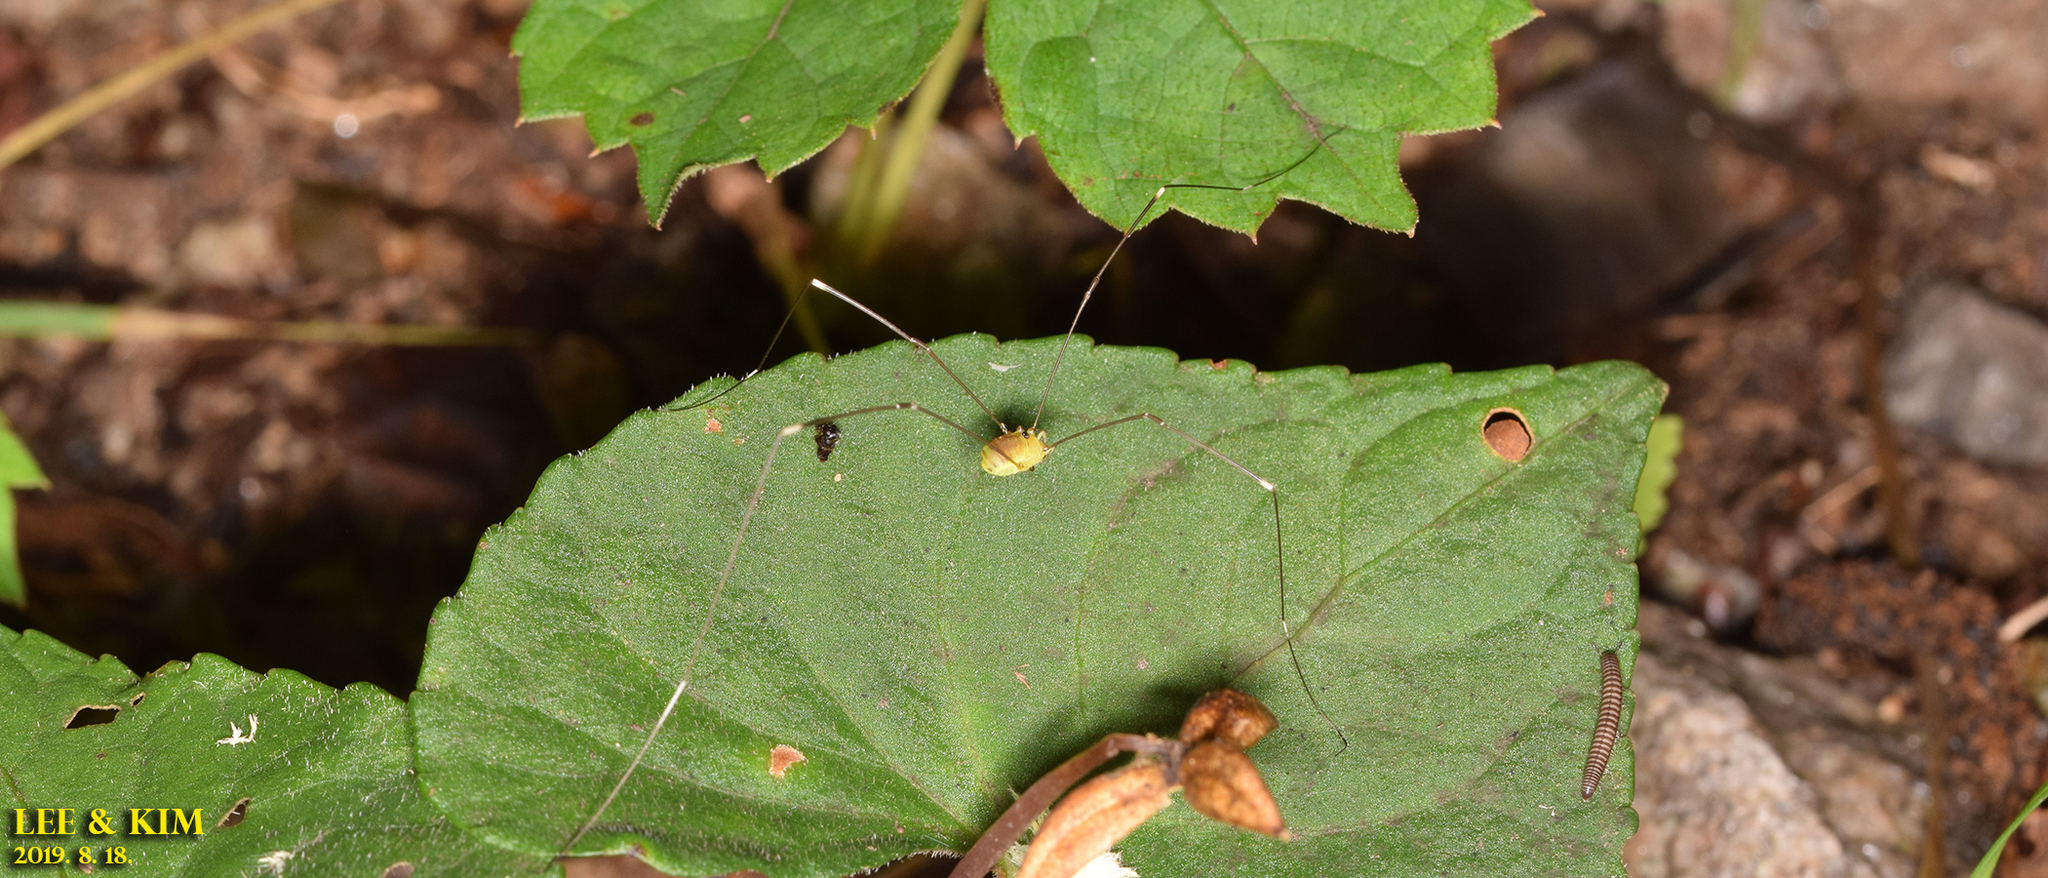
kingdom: Animalia
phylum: Arthropoda
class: Arachnida
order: Opiliones
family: Sclerosomatidae
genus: Leiobunum
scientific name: Leiobunum japonicum
